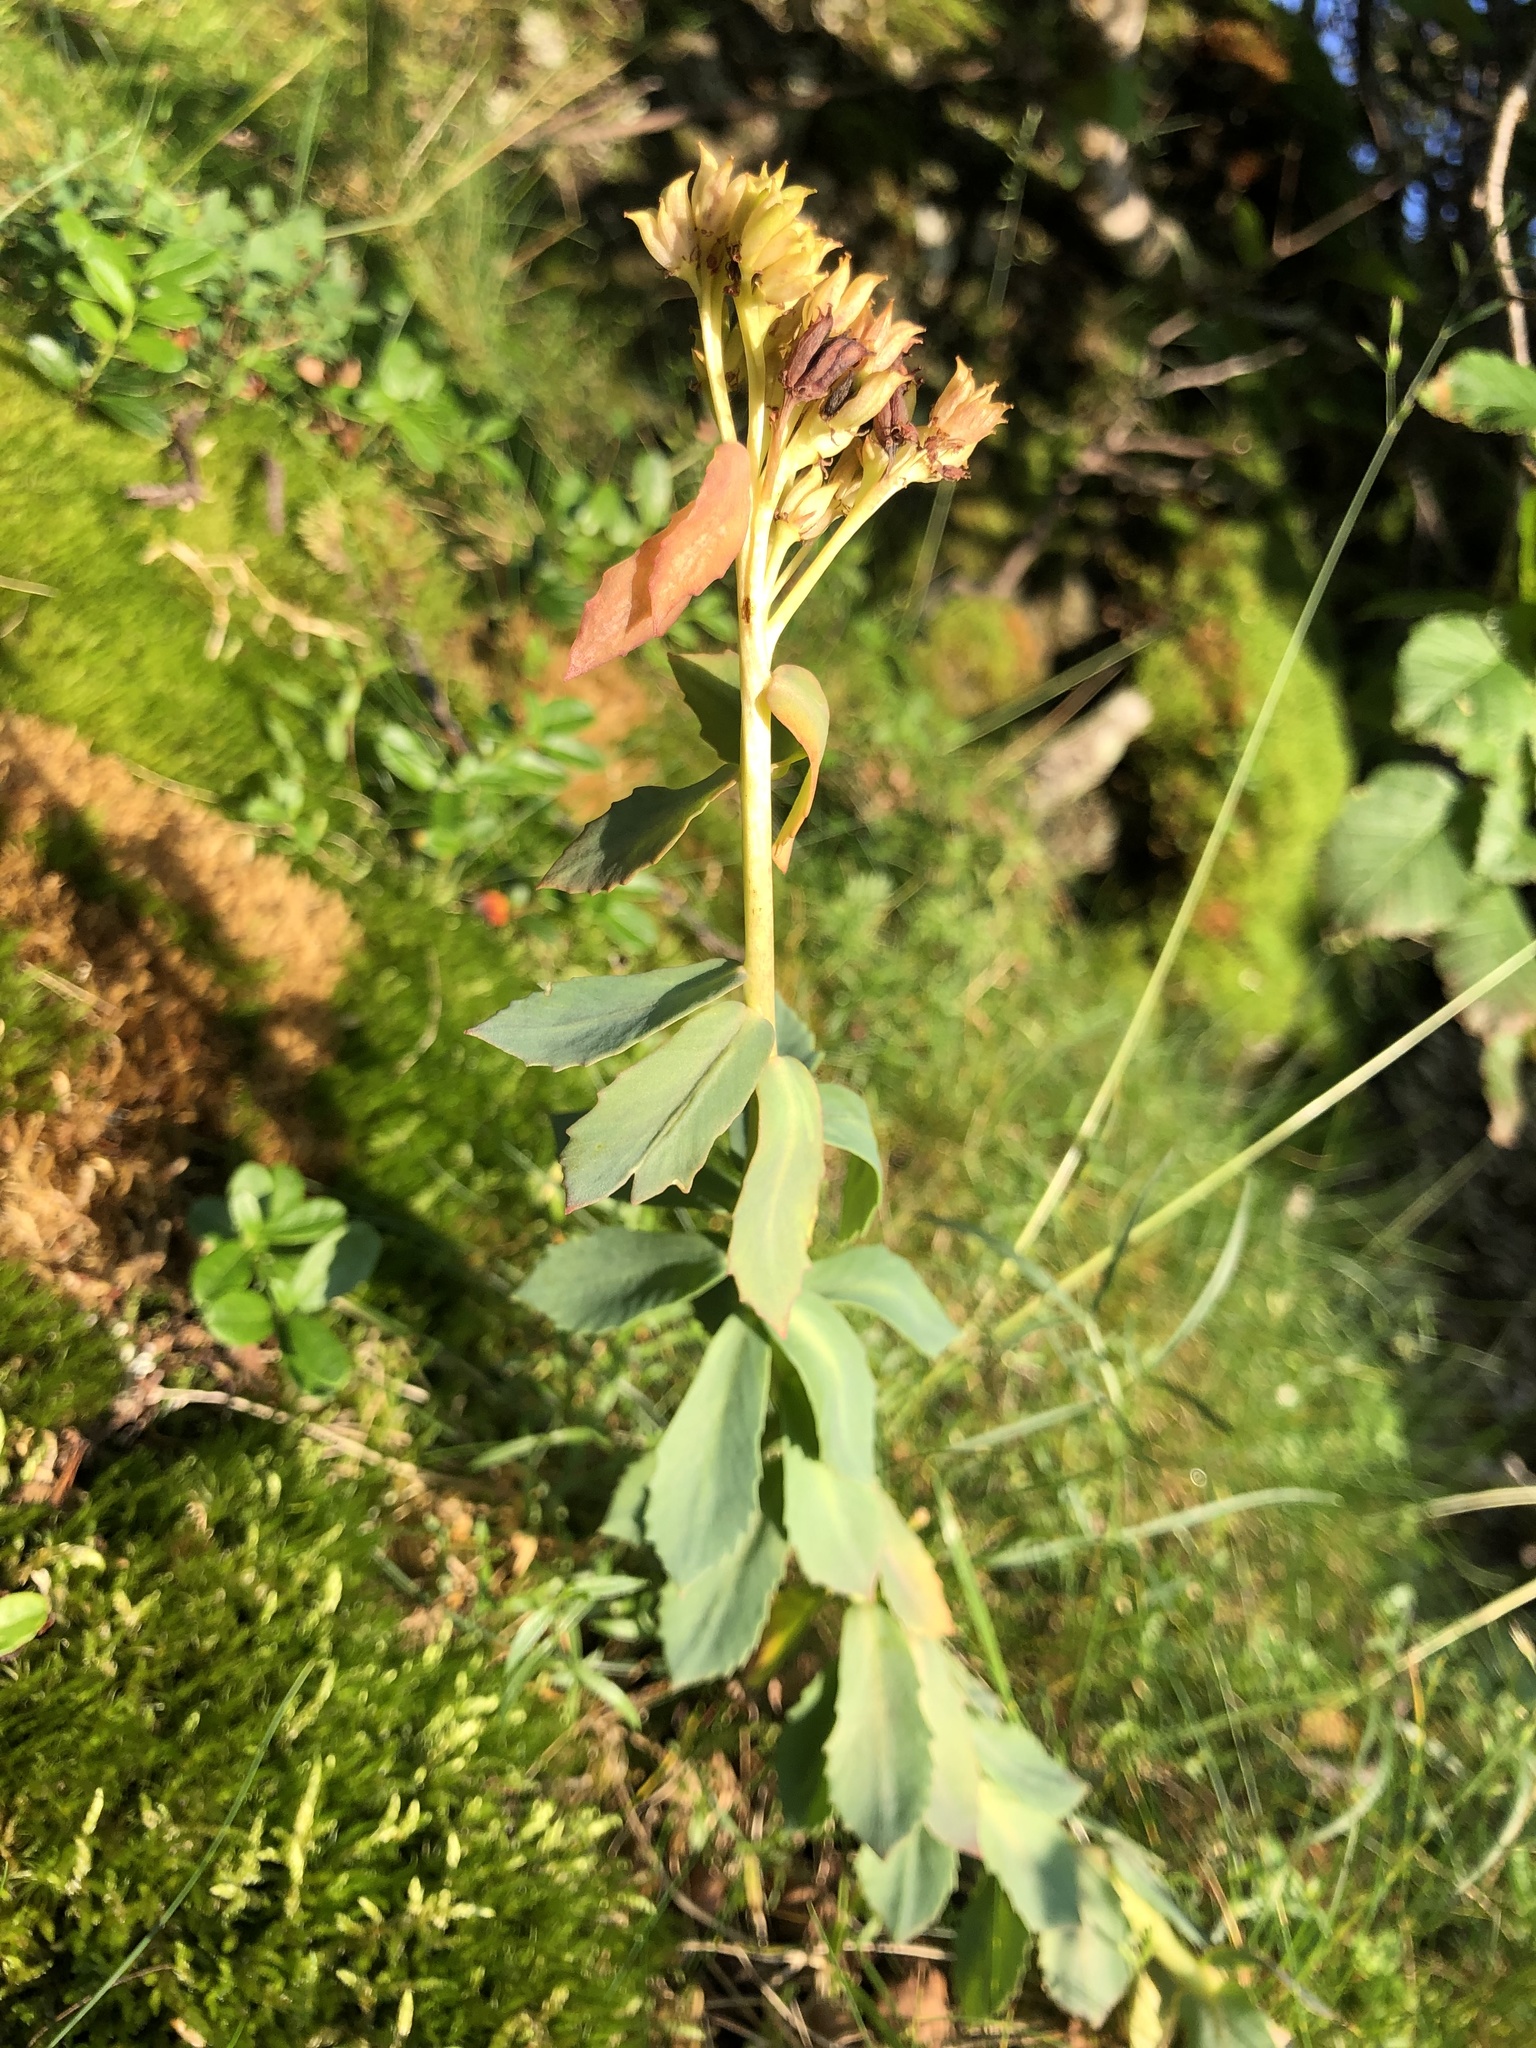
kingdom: Plantae
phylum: Tracheophyta
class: Magnoliopsida
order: Saxifragales
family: Crassulaceae
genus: Rhodiola
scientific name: Rhodiola rosea
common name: Roseroot
